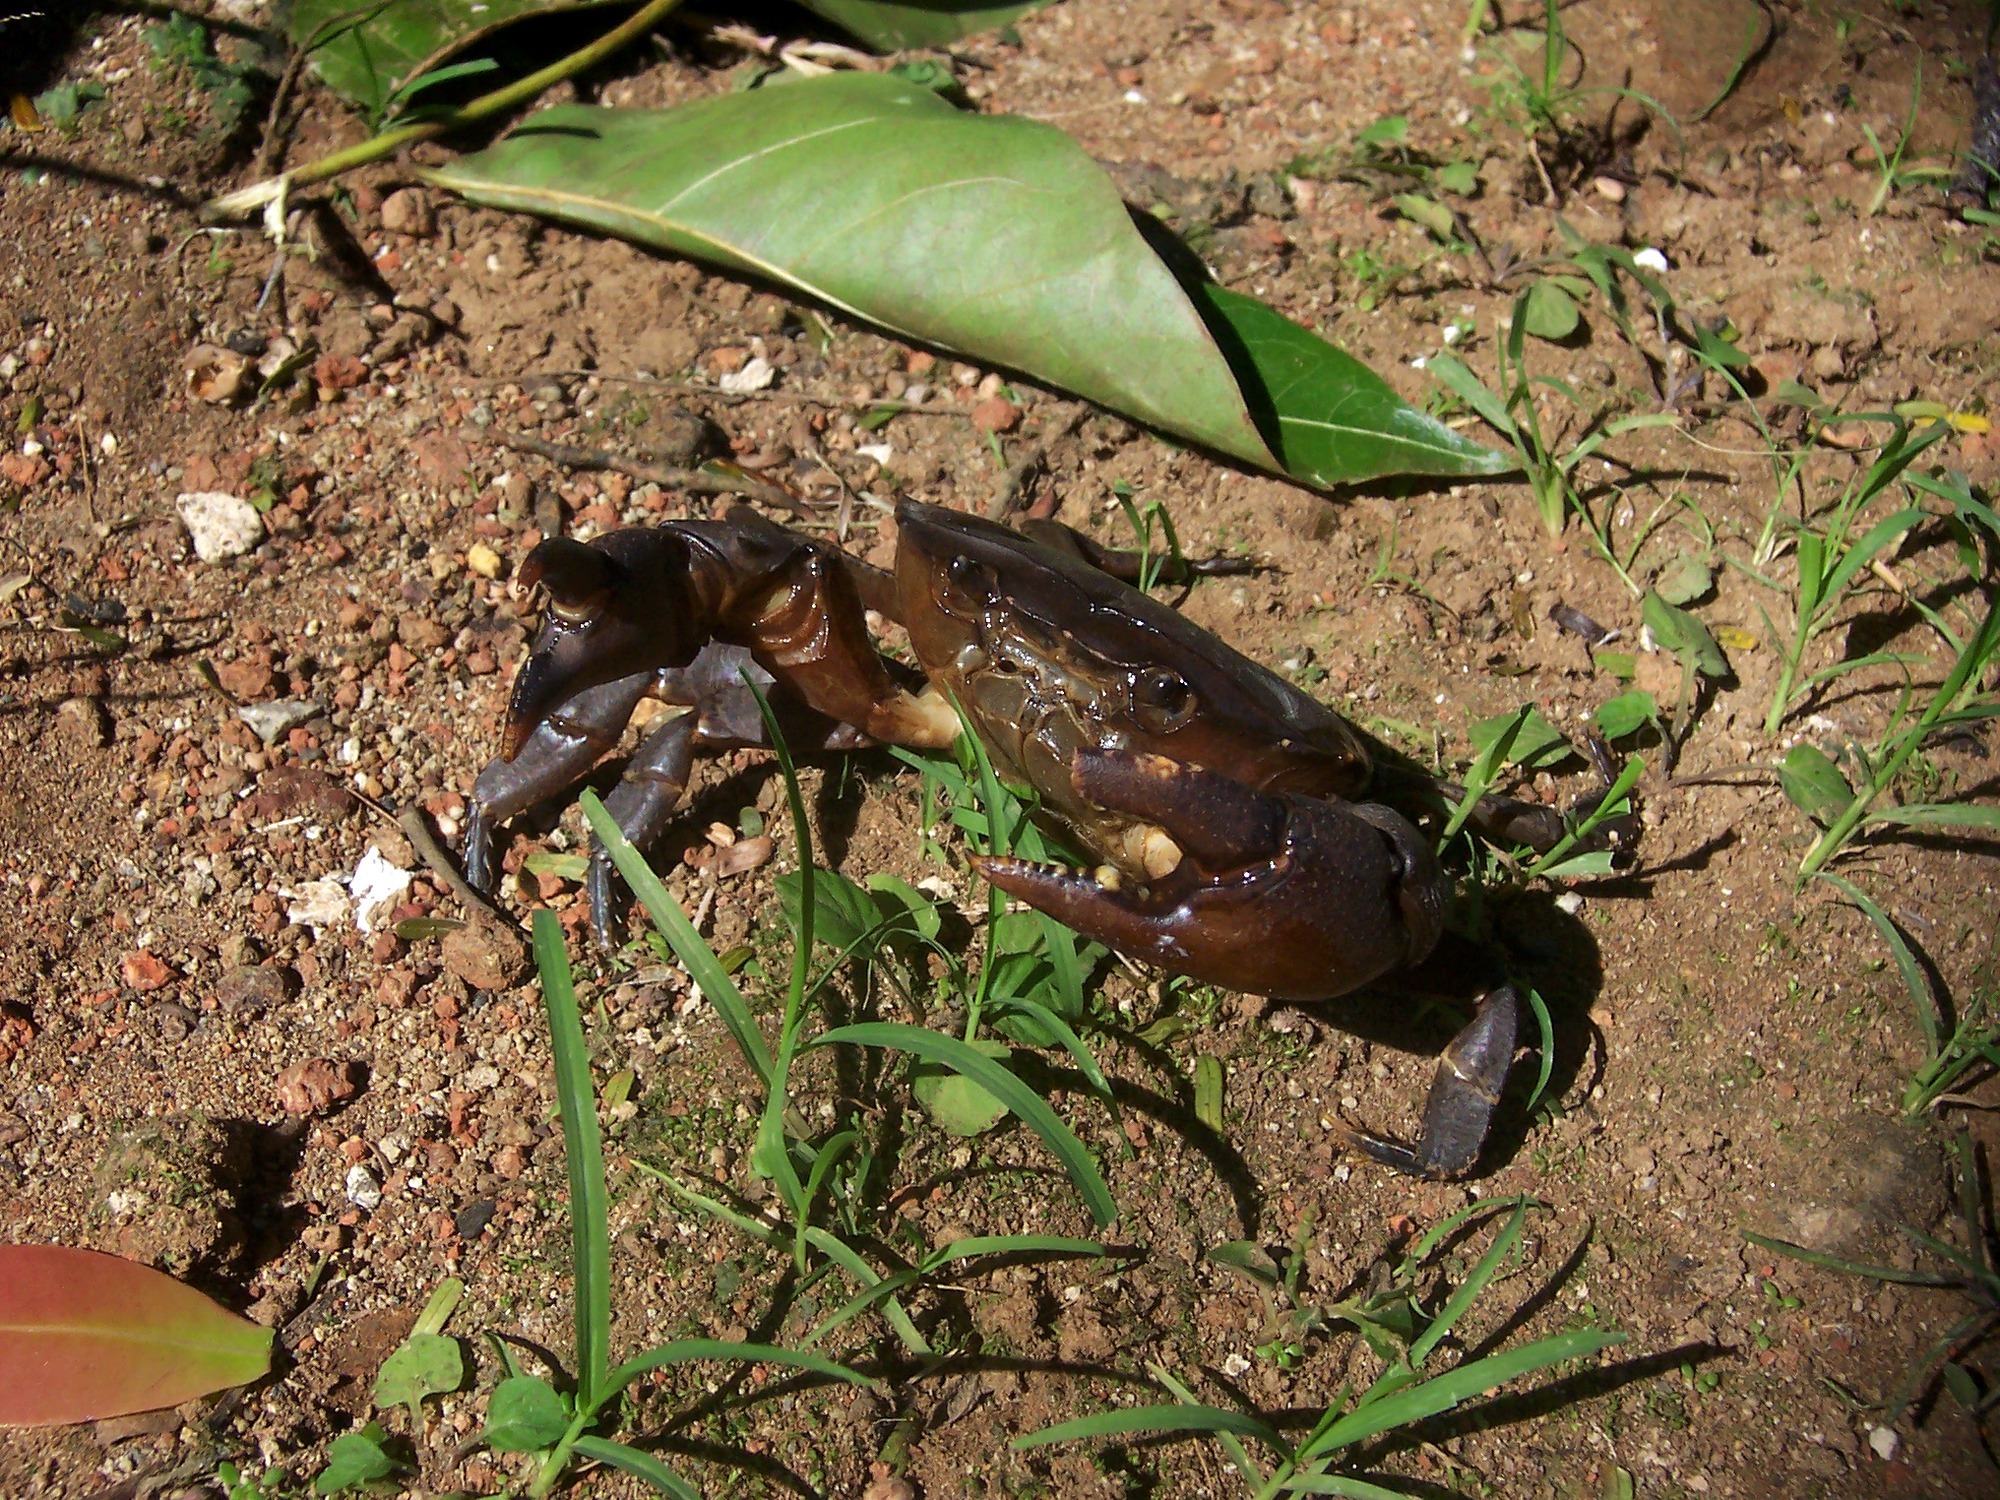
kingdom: Animalia
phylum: Arthropoda
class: Malacostraca
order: Decapoda
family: Gecarcinucidae
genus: Parathelphusa
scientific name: Parathelphusa convexa
